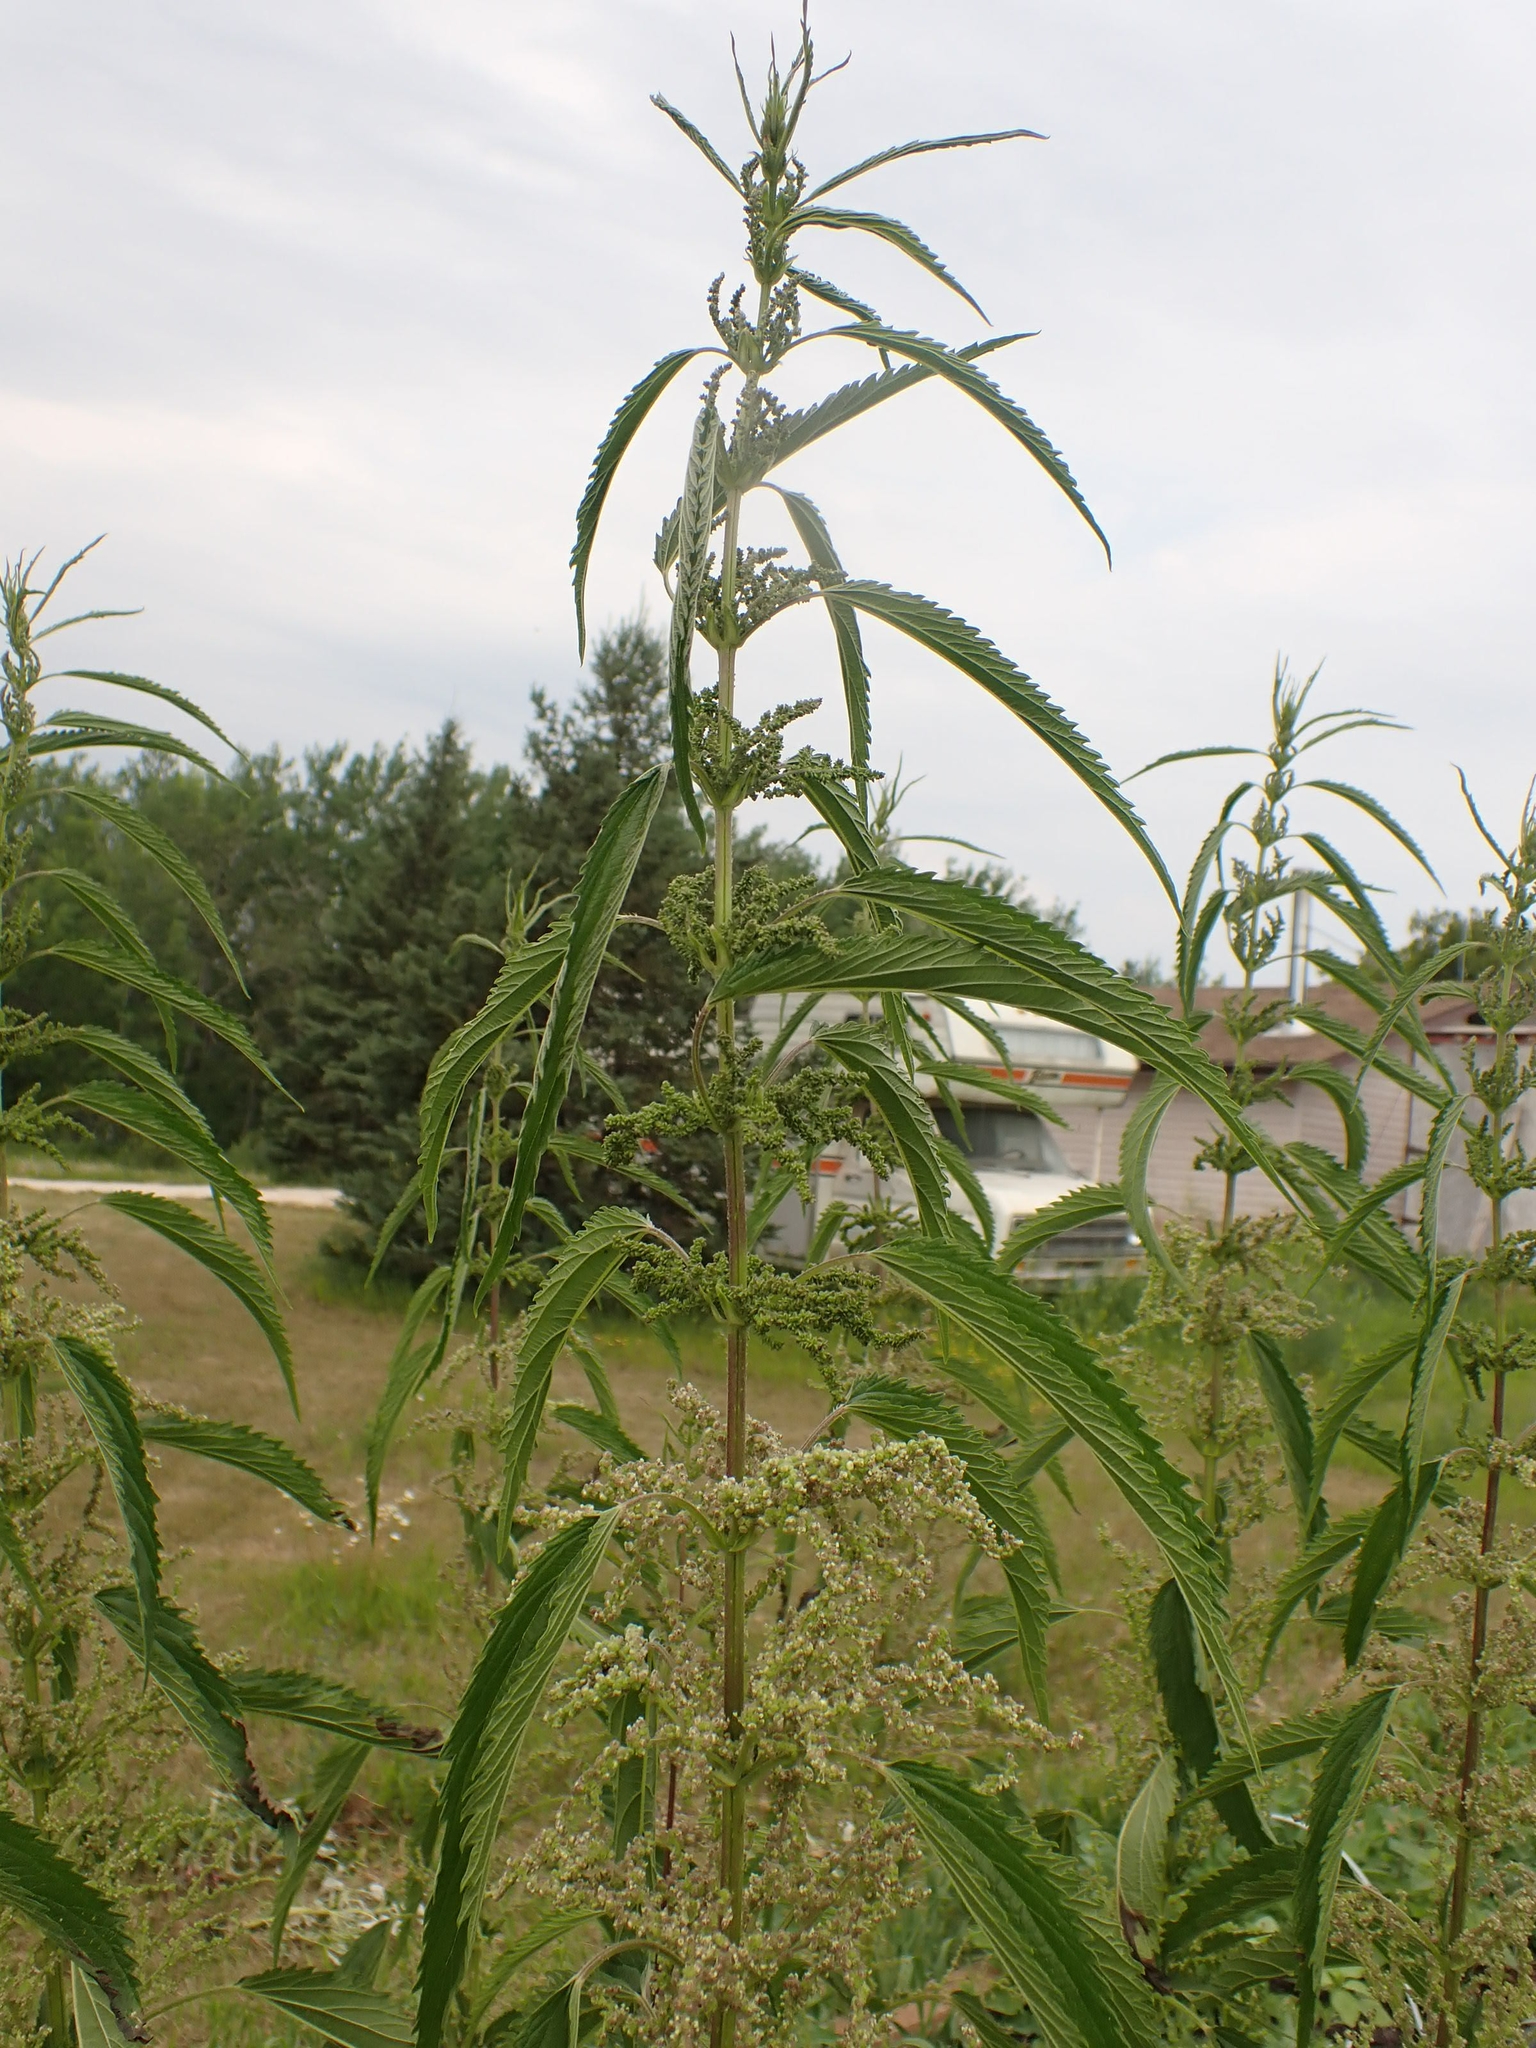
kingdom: Plantae
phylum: Tracheophyta
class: Magnoliopsida
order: Rosales
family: Urticaceae
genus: Urtica
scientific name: Urtica gracilis
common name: Slender stinging nettle
